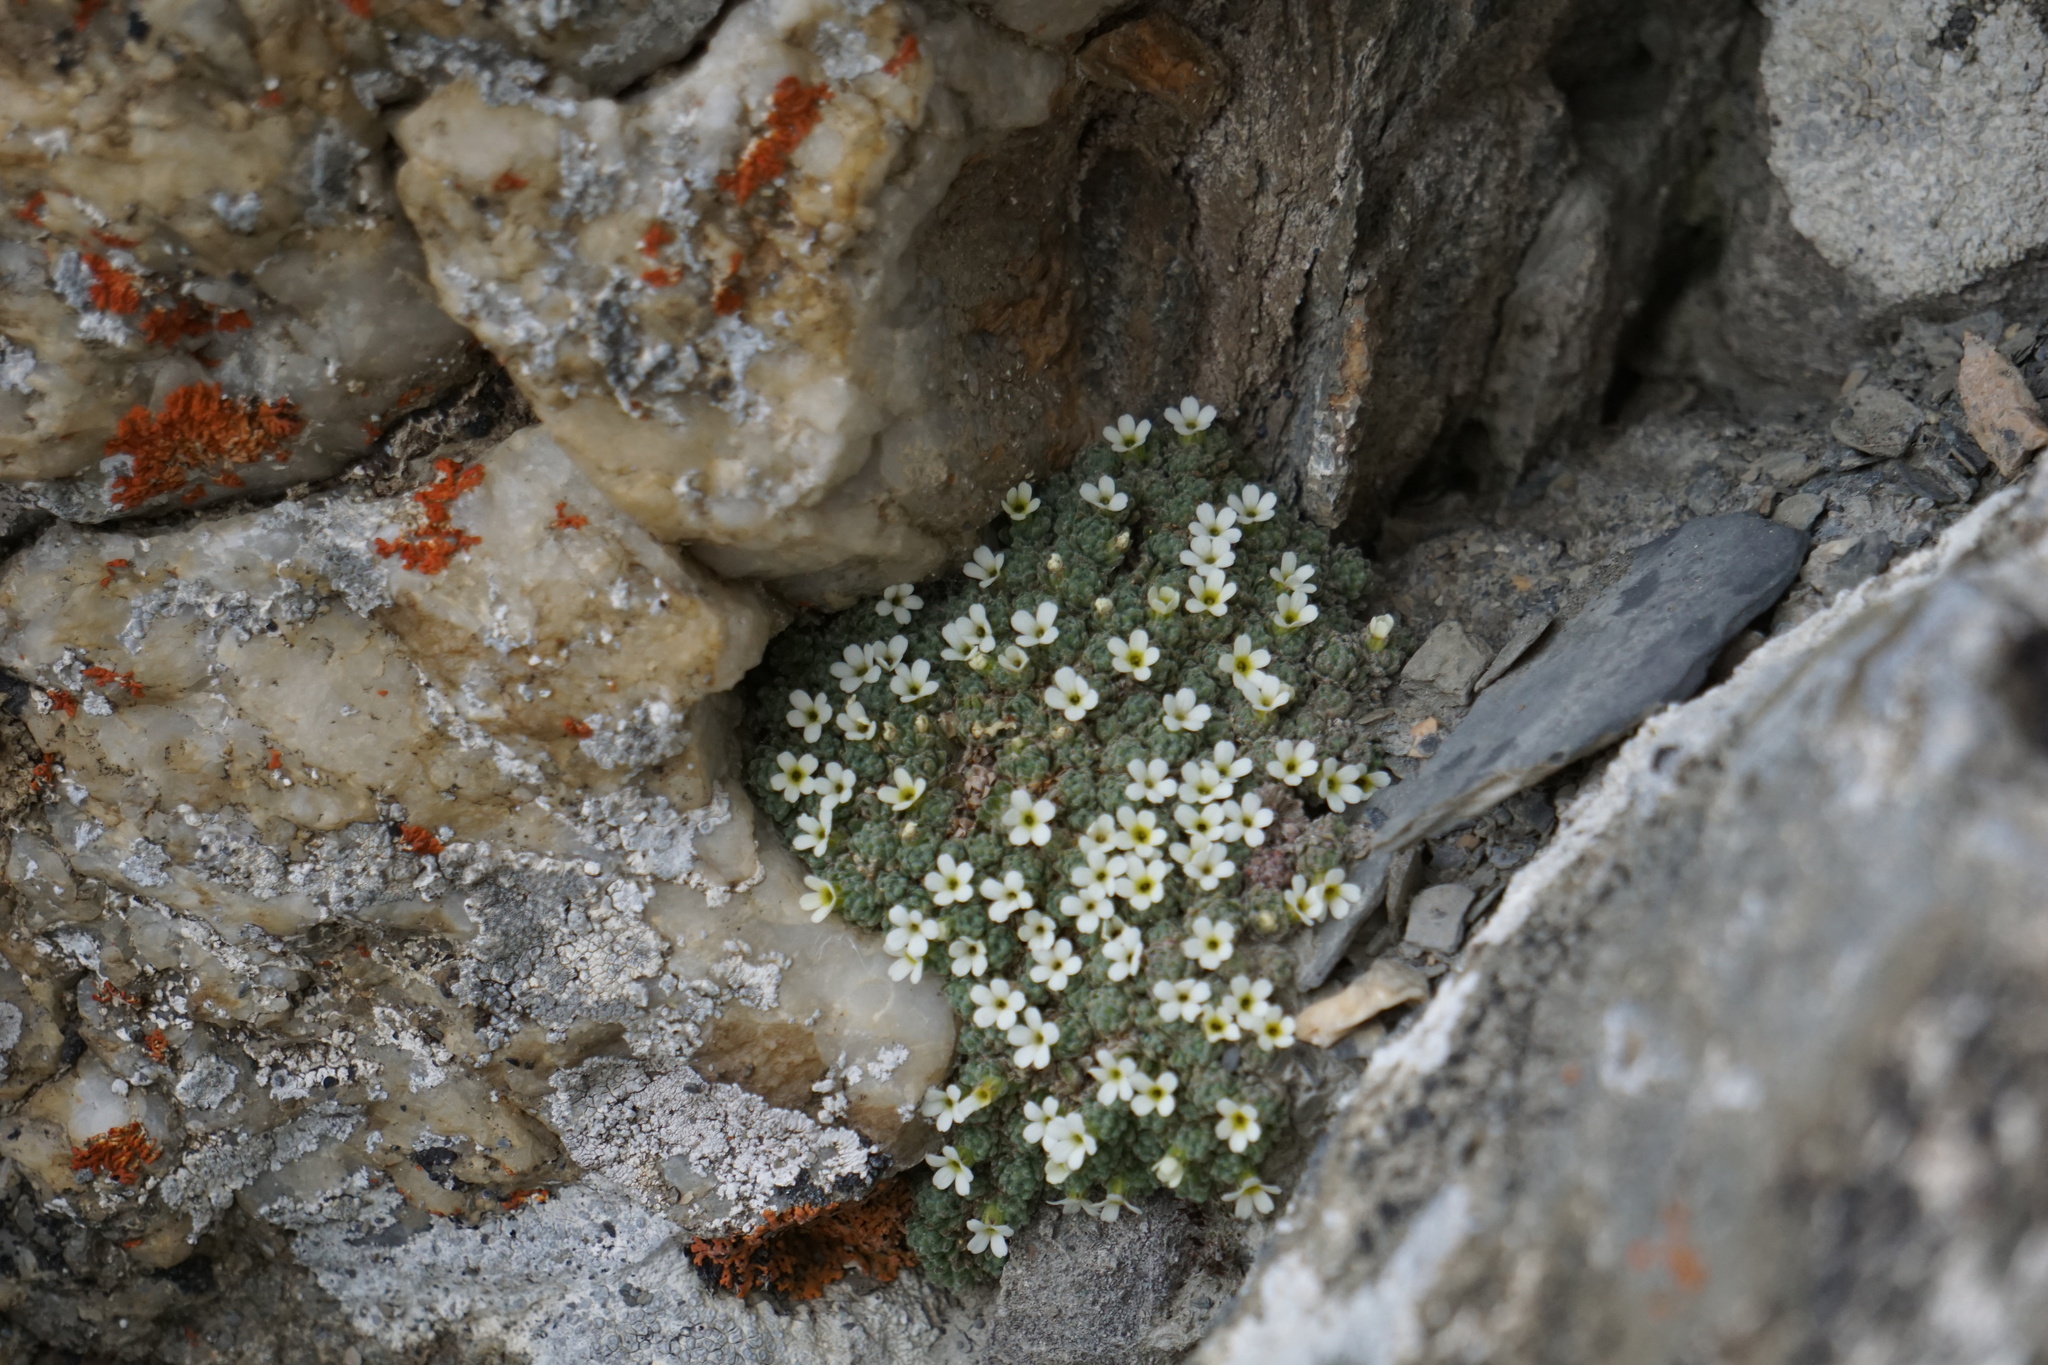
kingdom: Plantae
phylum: Tracheophyta
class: Magnoliopsida
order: Ericales
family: Primulaceae
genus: Androsace
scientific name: Androsace helvetica
